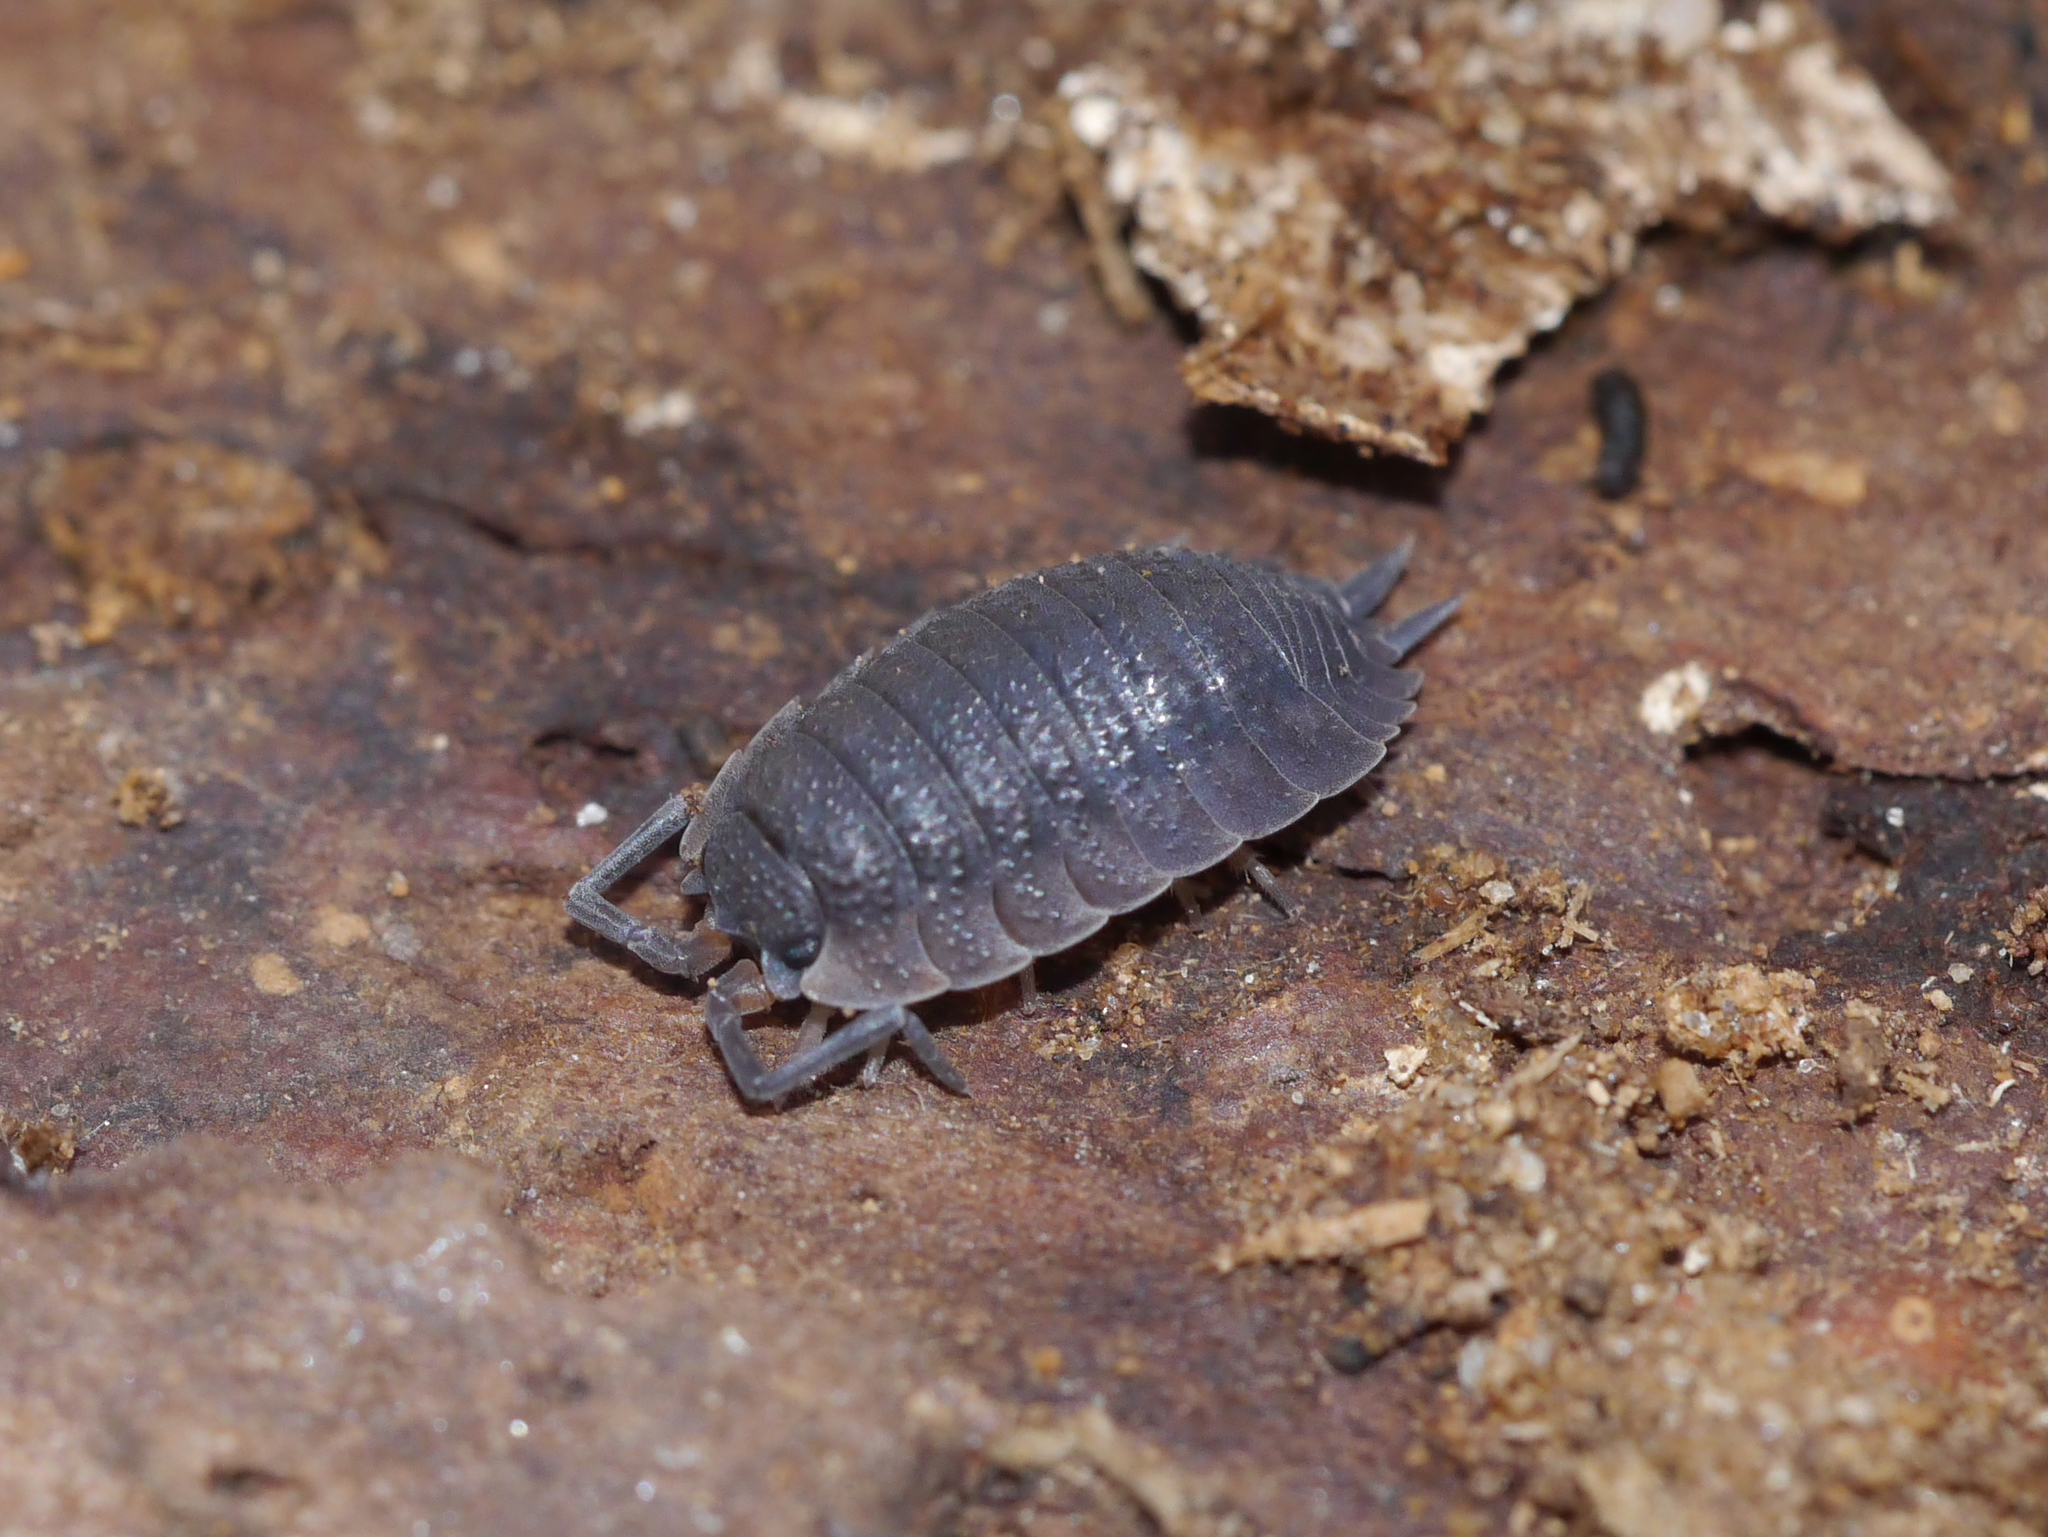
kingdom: Animalia
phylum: Arthropoda
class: Malacostraca
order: Isopoda
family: Porcellionidae
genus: Porcellio
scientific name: Porcellio scaber
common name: Common rough woodlouse
